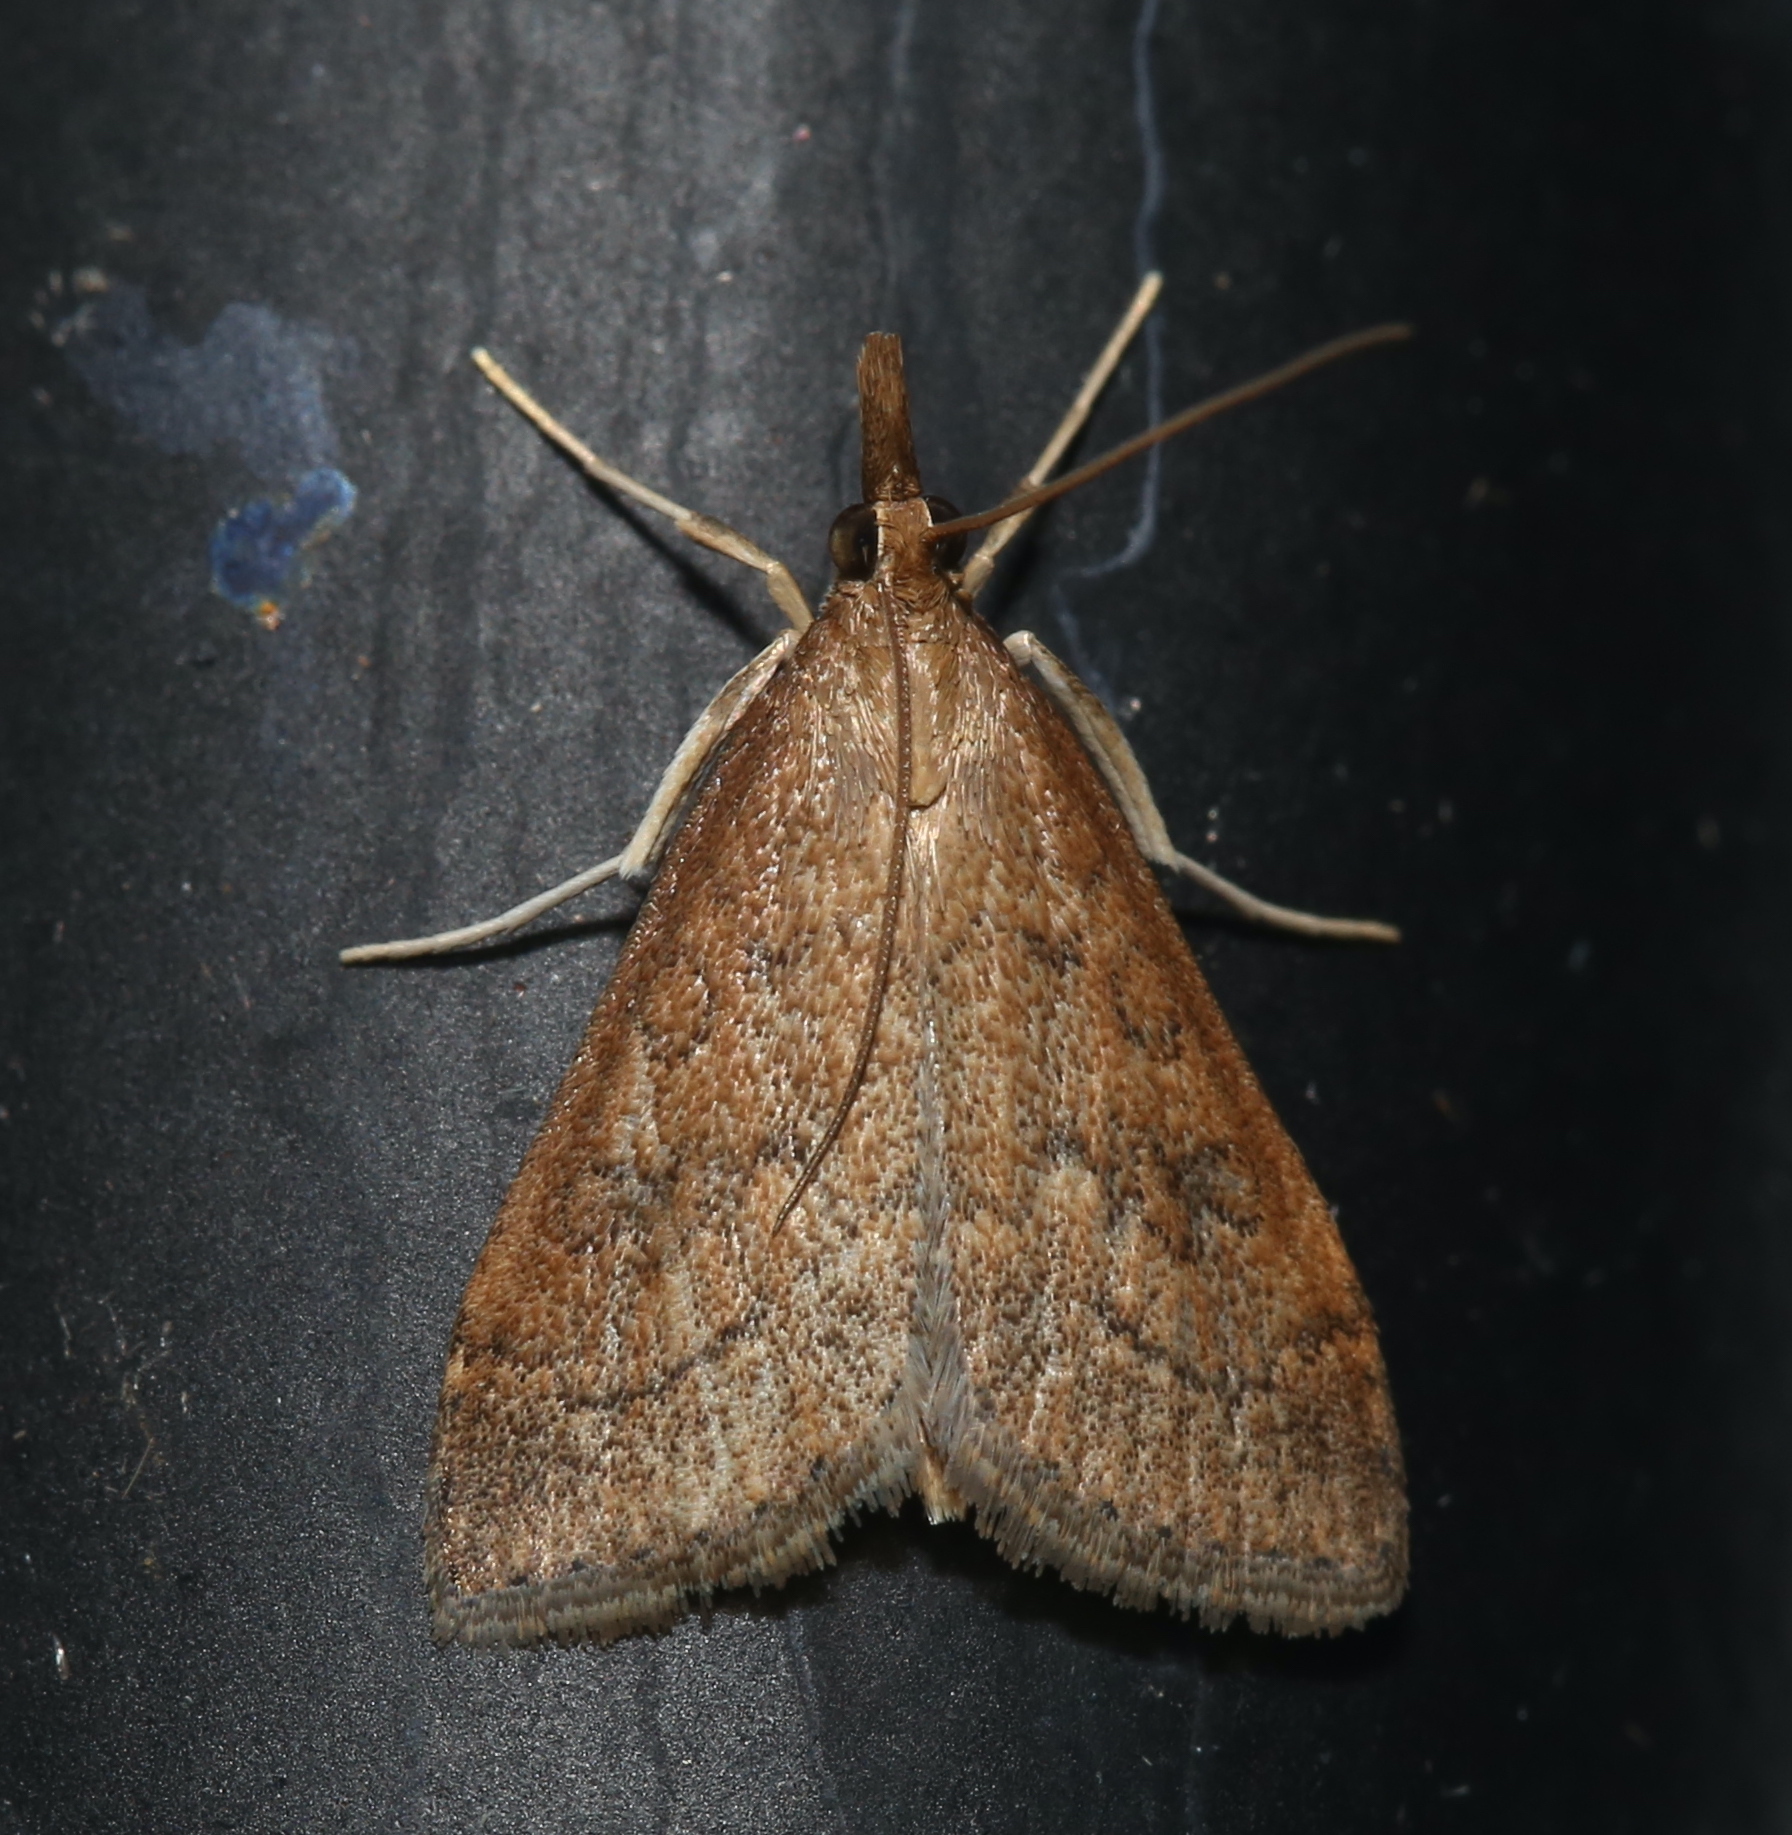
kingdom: Animalia
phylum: Arthropoda
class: Insecta
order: Lepidoptera
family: Crambidae
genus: Udea
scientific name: Udea rubigalis
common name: Celery leaftier moth
